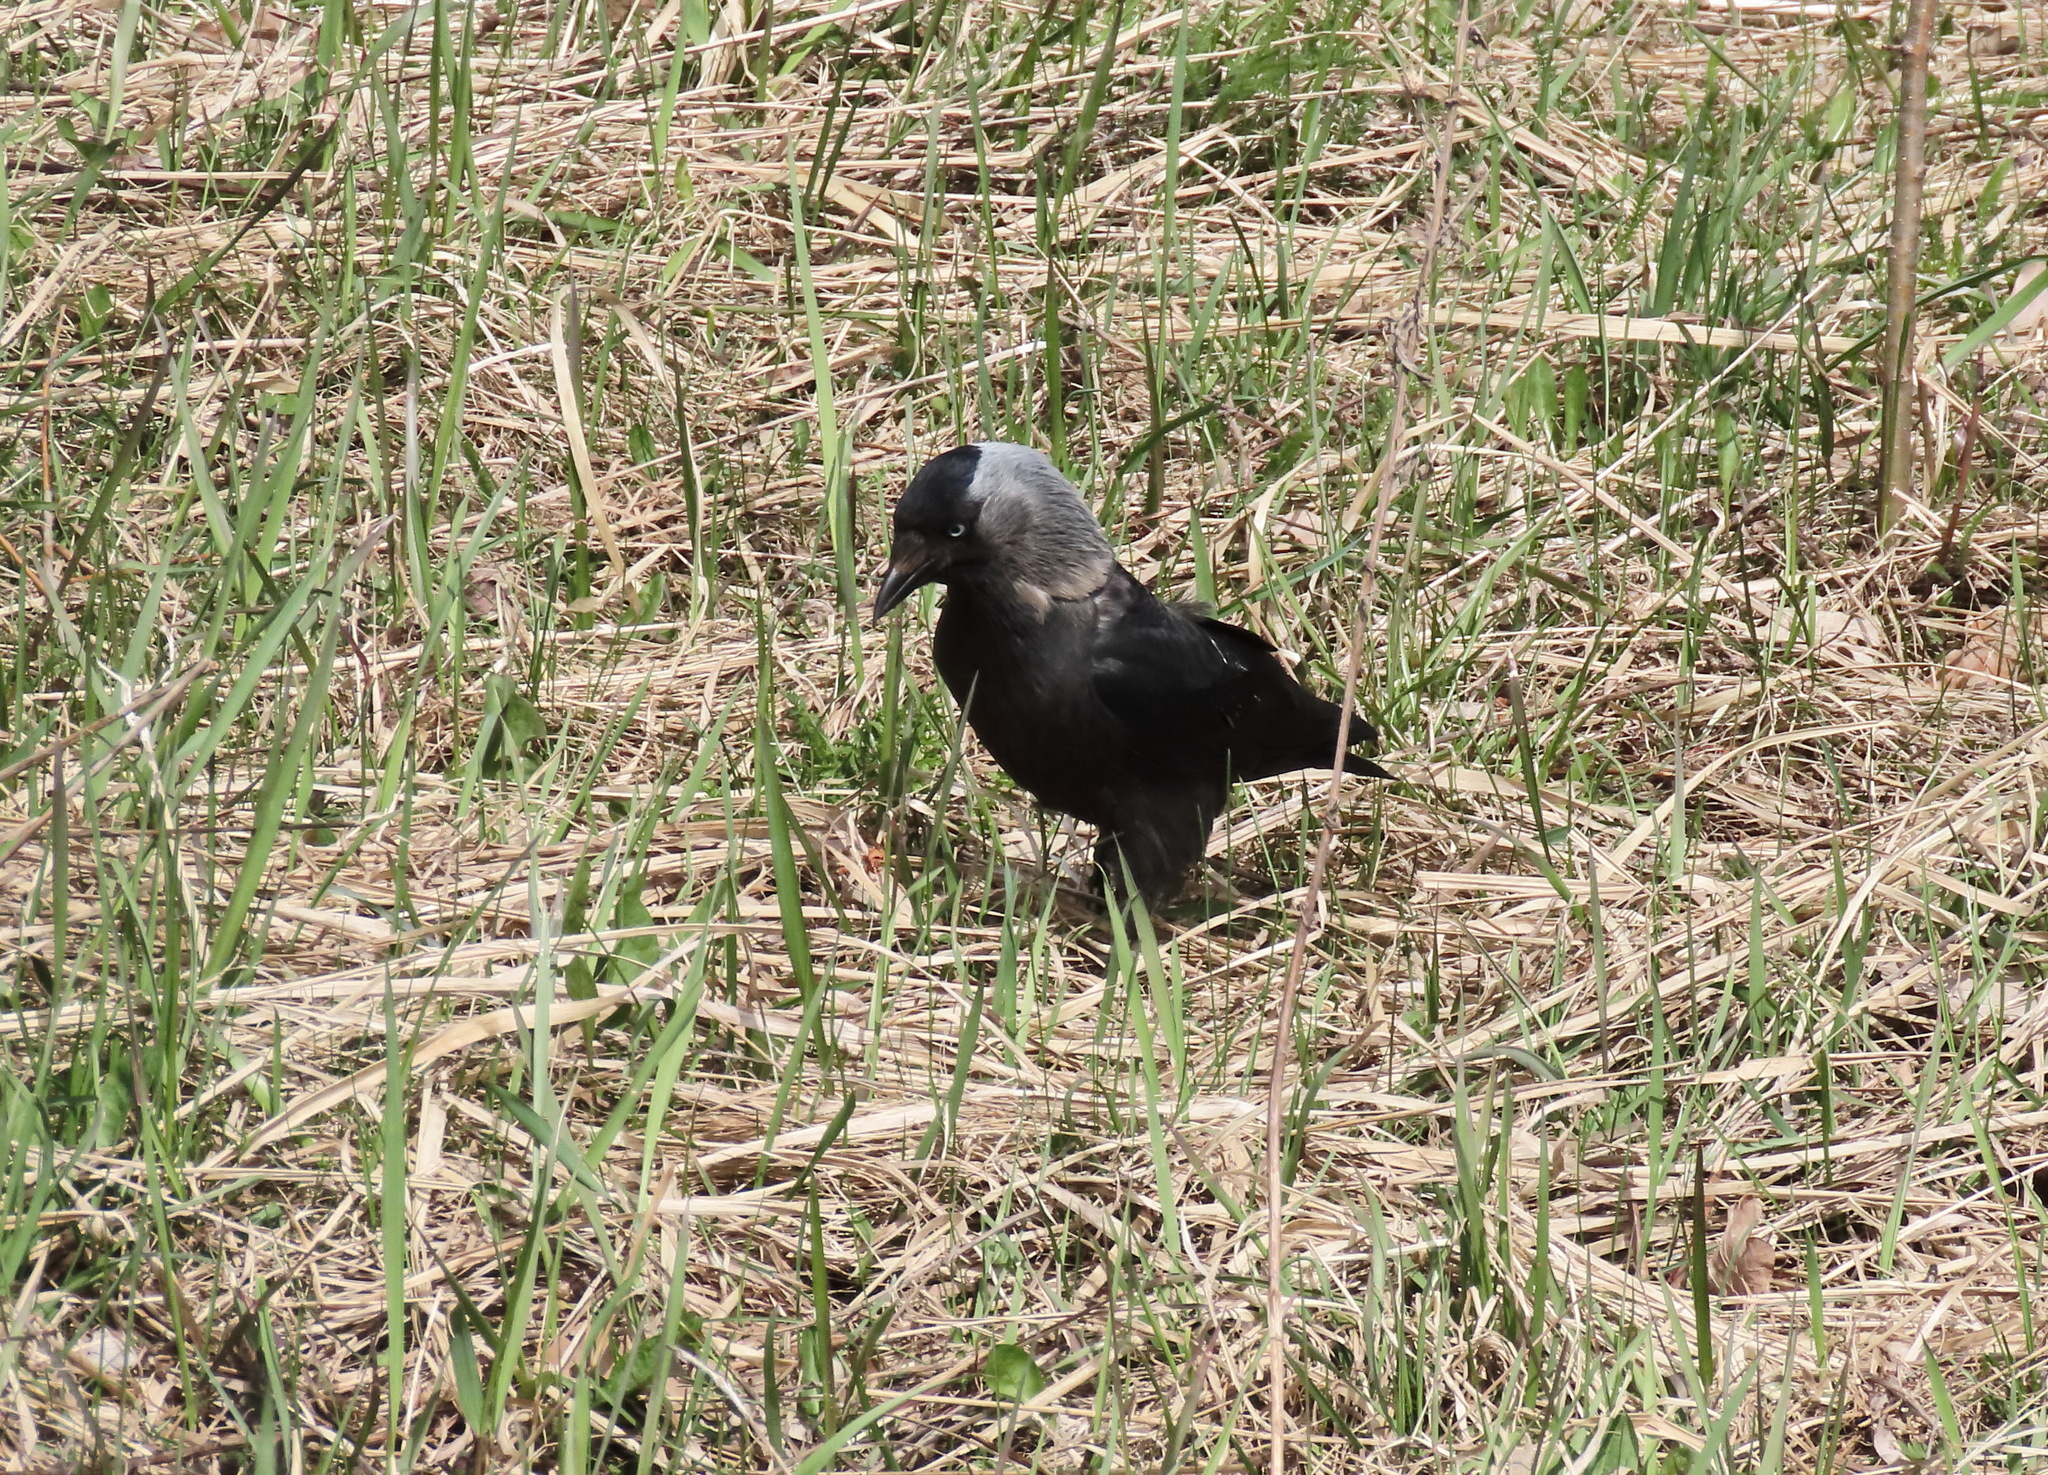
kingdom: Animalia
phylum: Chordata
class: Aves
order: Passeriformes
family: Corvidae
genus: Coloeus
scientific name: Coloeus monedula
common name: Western jackdaw
